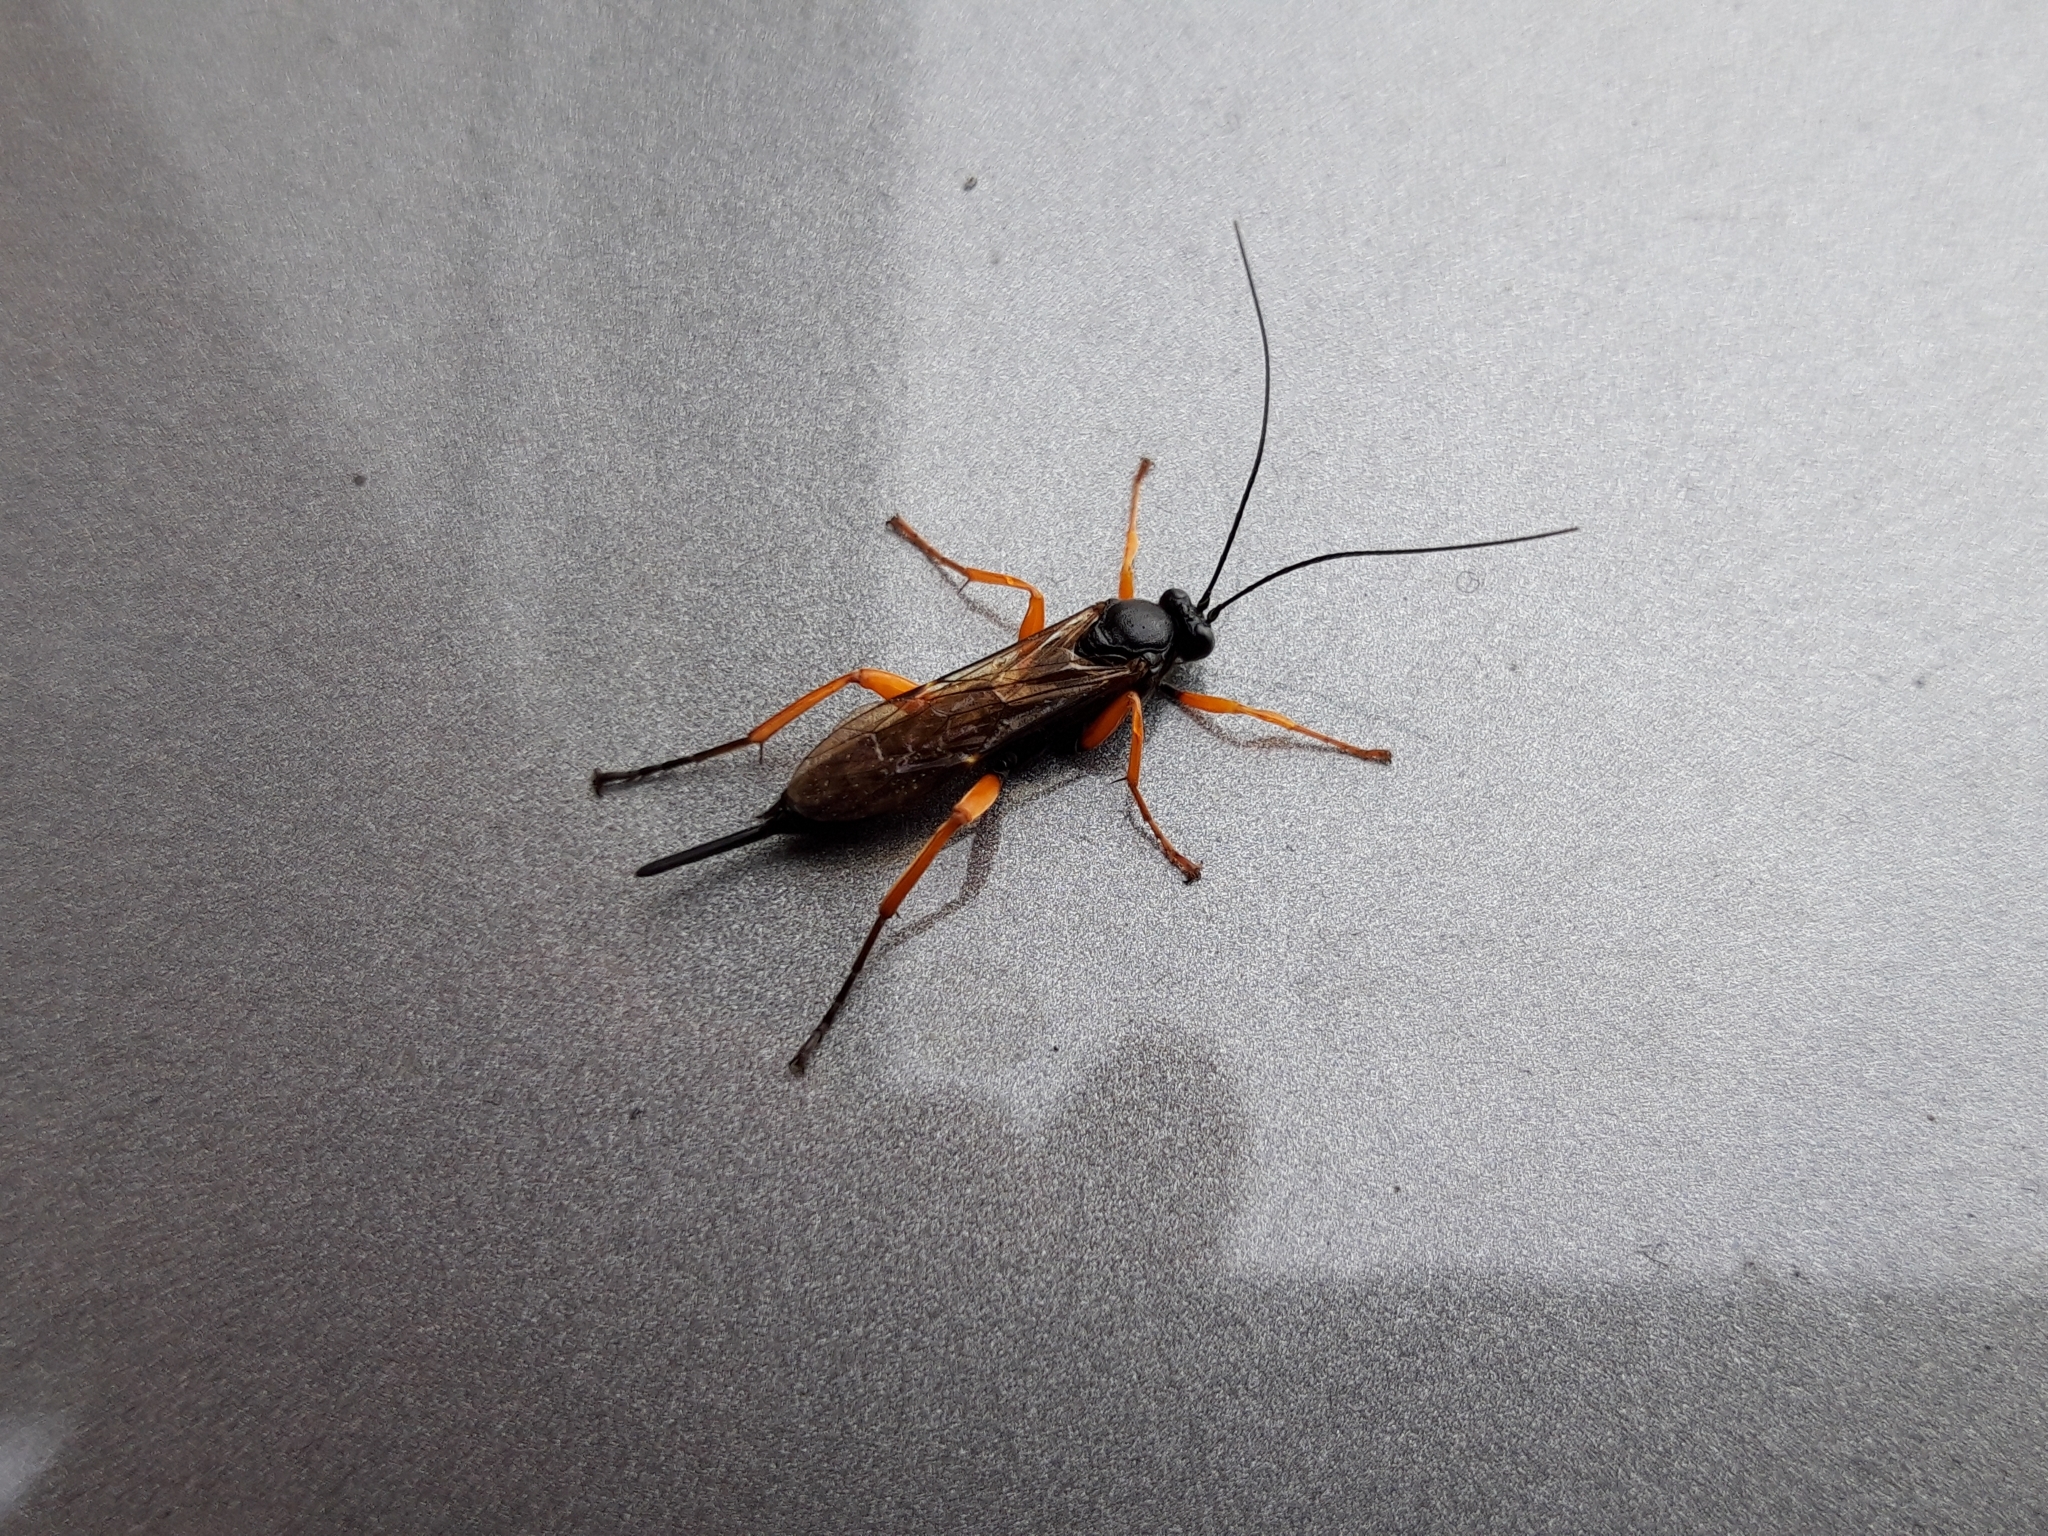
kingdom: Animalia
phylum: Arthropoda
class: Insecta
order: Hymenoptera
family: Ichneumonidae
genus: Pimpla
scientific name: Pimpla rufipes
